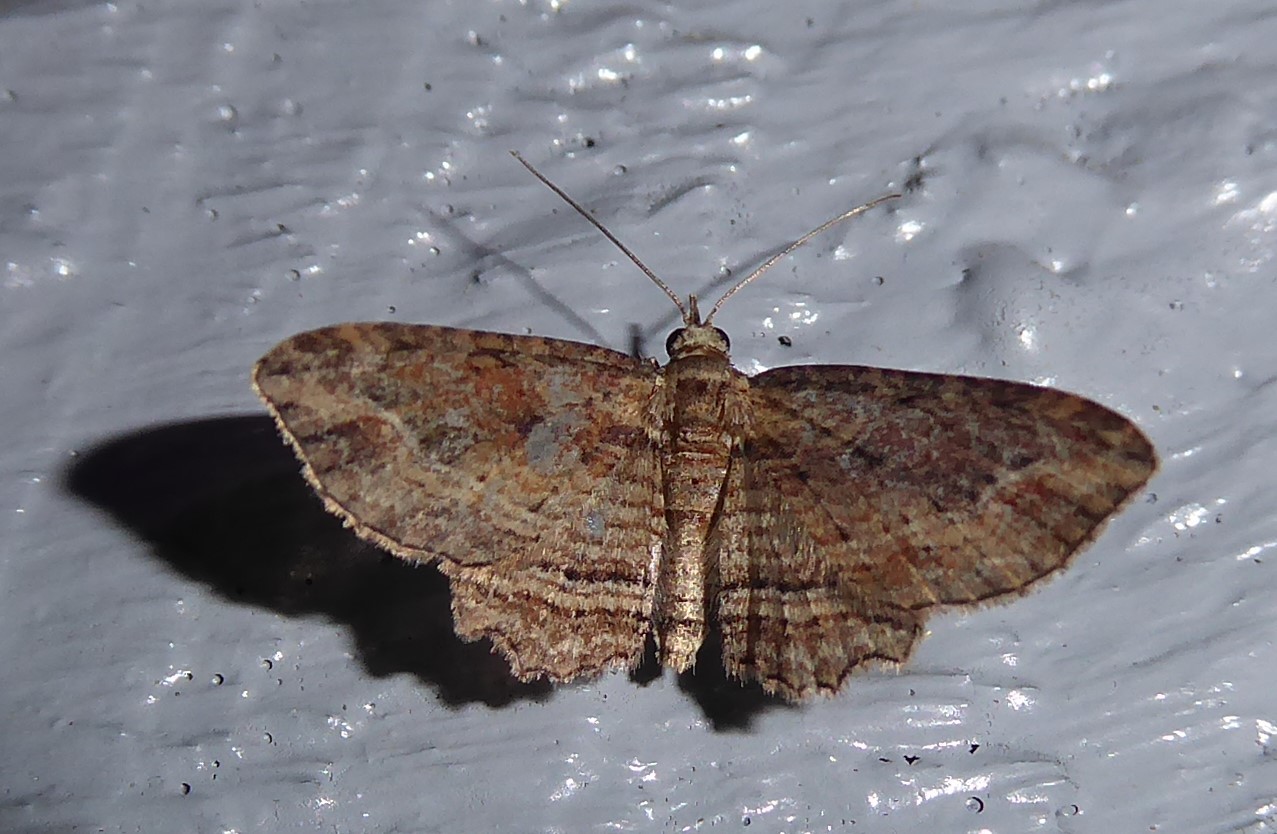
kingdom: Animalia
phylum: Arthropoda
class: Insecta
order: Lepidoptera
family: Geometridae
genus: Chloroclystis
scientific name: Chloroclystis filata
